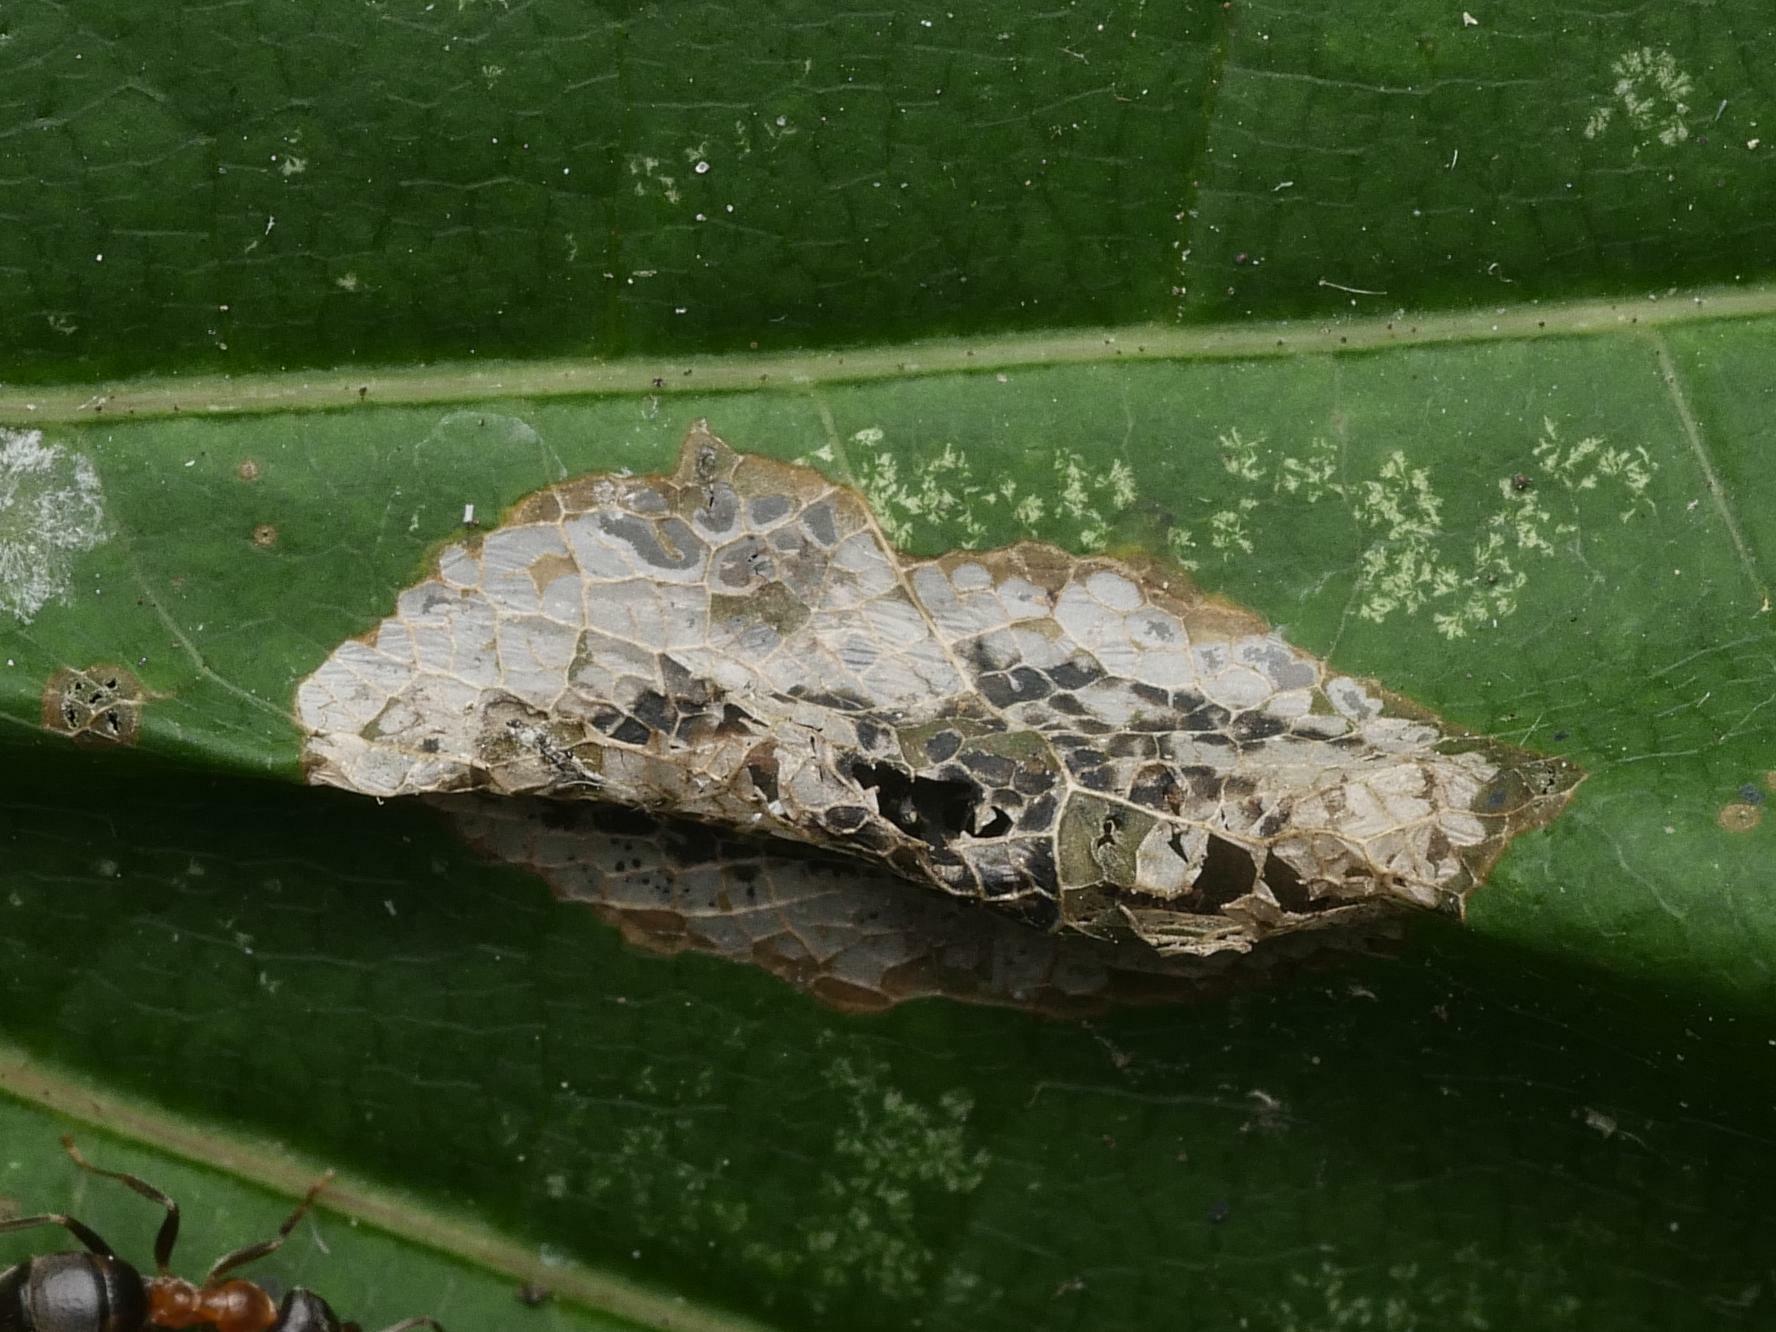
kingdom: Animalia
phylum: Arthropoda
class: Insecta
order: Lepidoptera
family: Gracillariidae
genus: Phyllonorycter
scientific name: Phyllonorycter joannisi
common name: White-bodied midget
